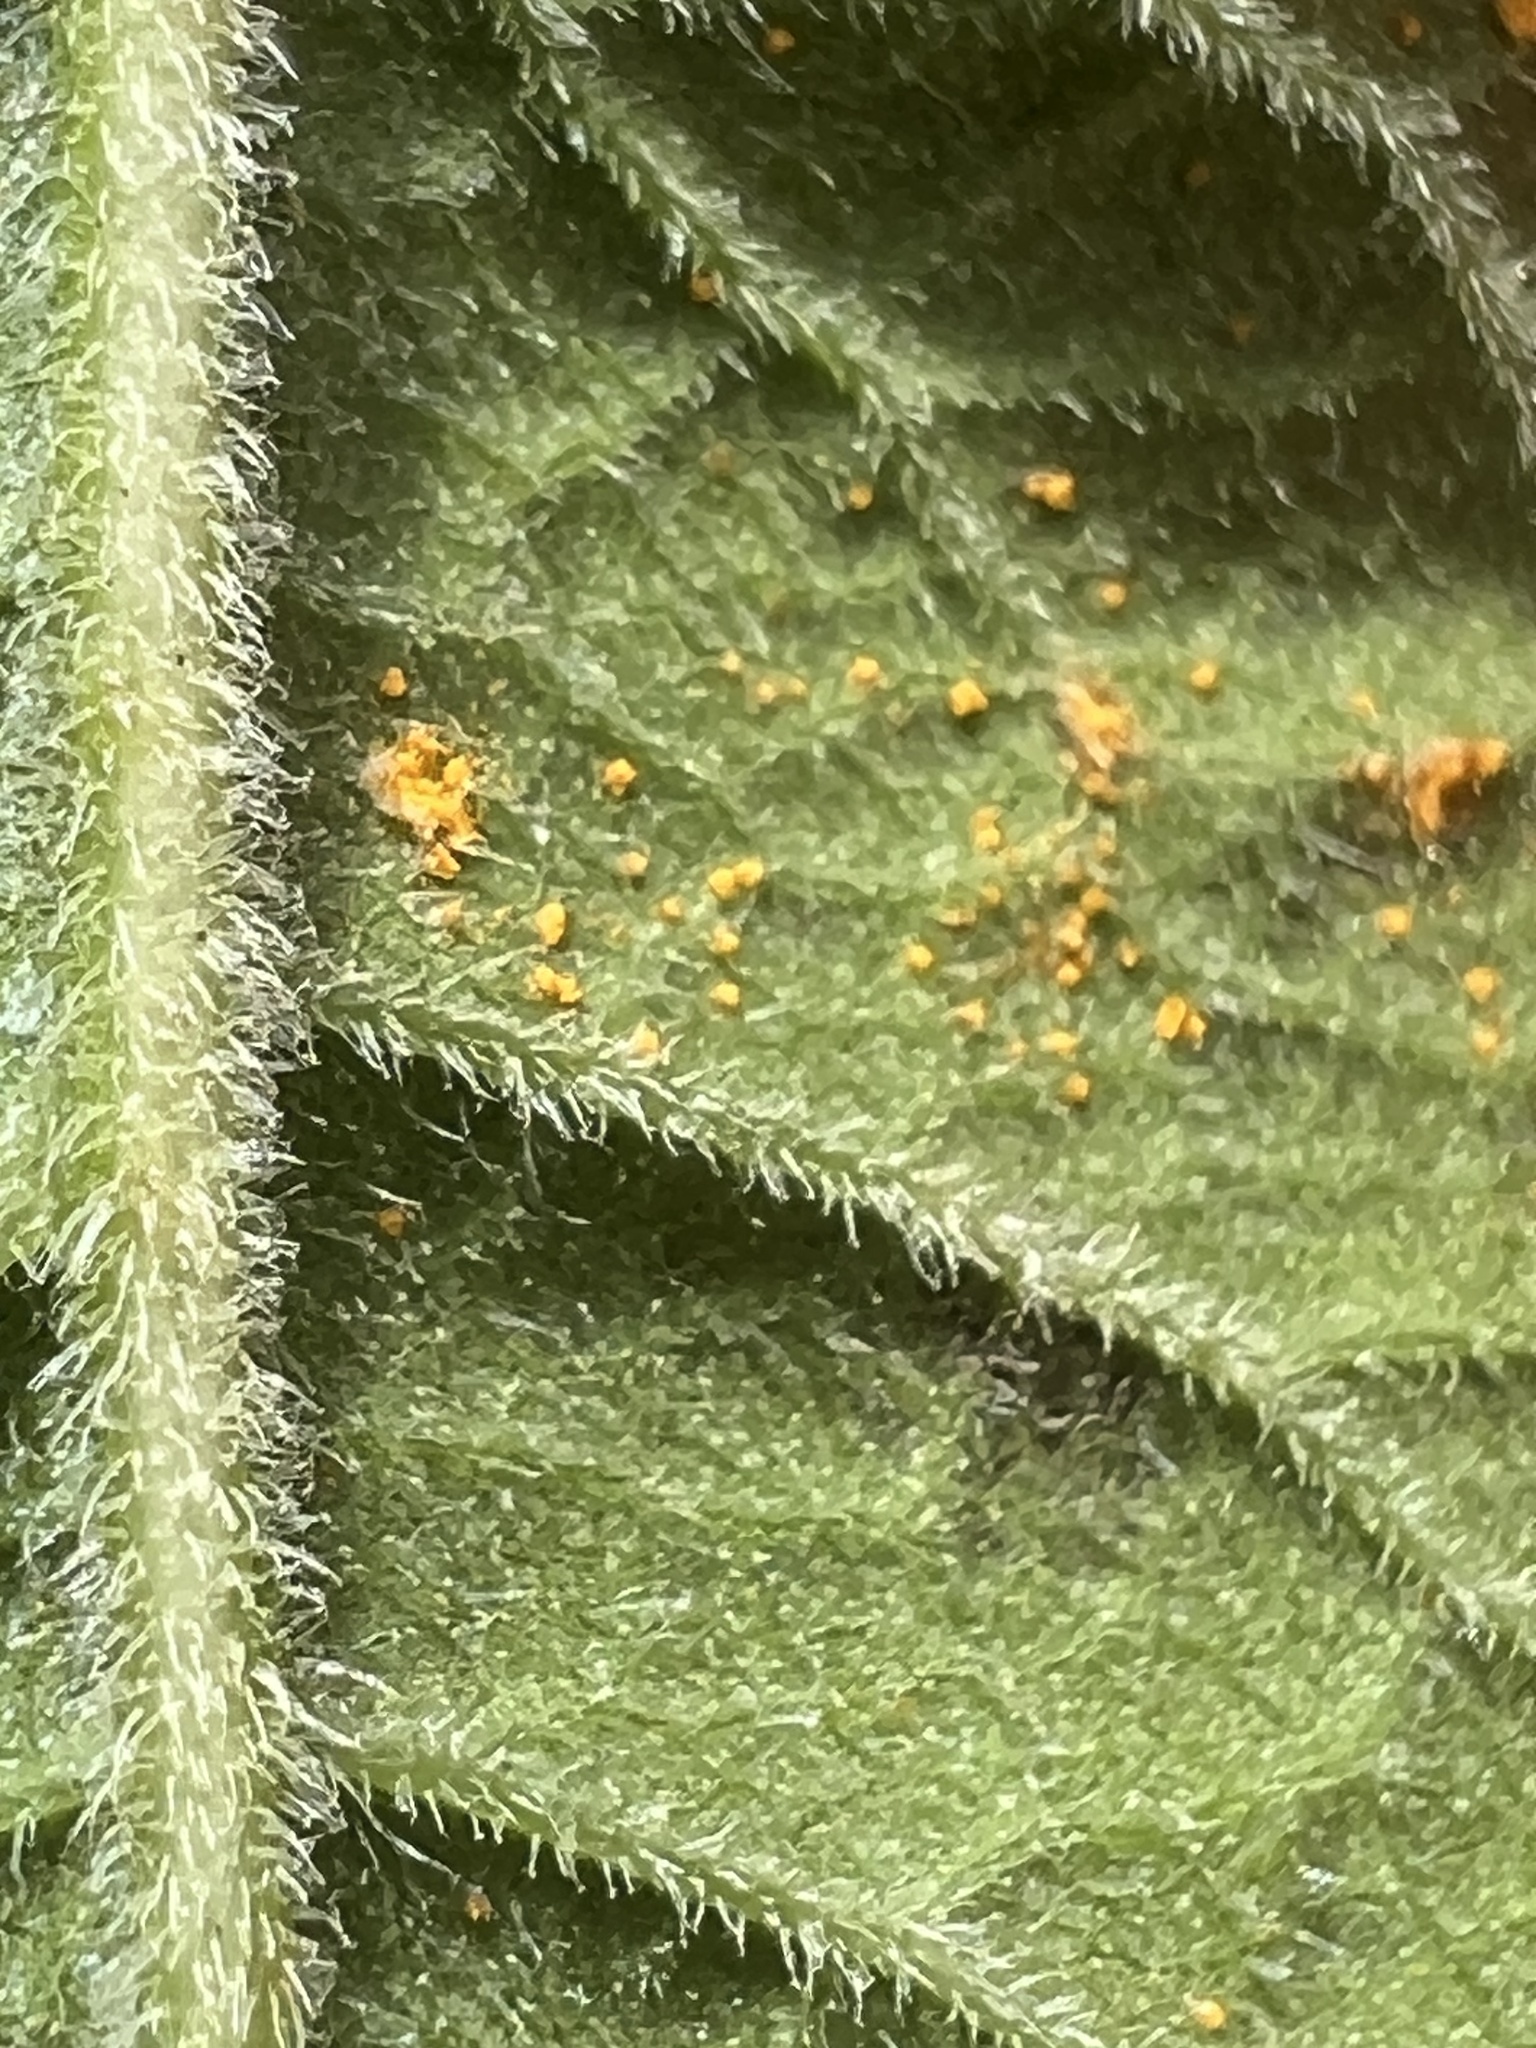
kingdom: Fungi
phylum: Basidiomycota
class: Pucciniomycetes
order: Pucciniales
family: Coleosporiaceae
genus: Coleosporium
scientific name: Coleosporium vernoniae
